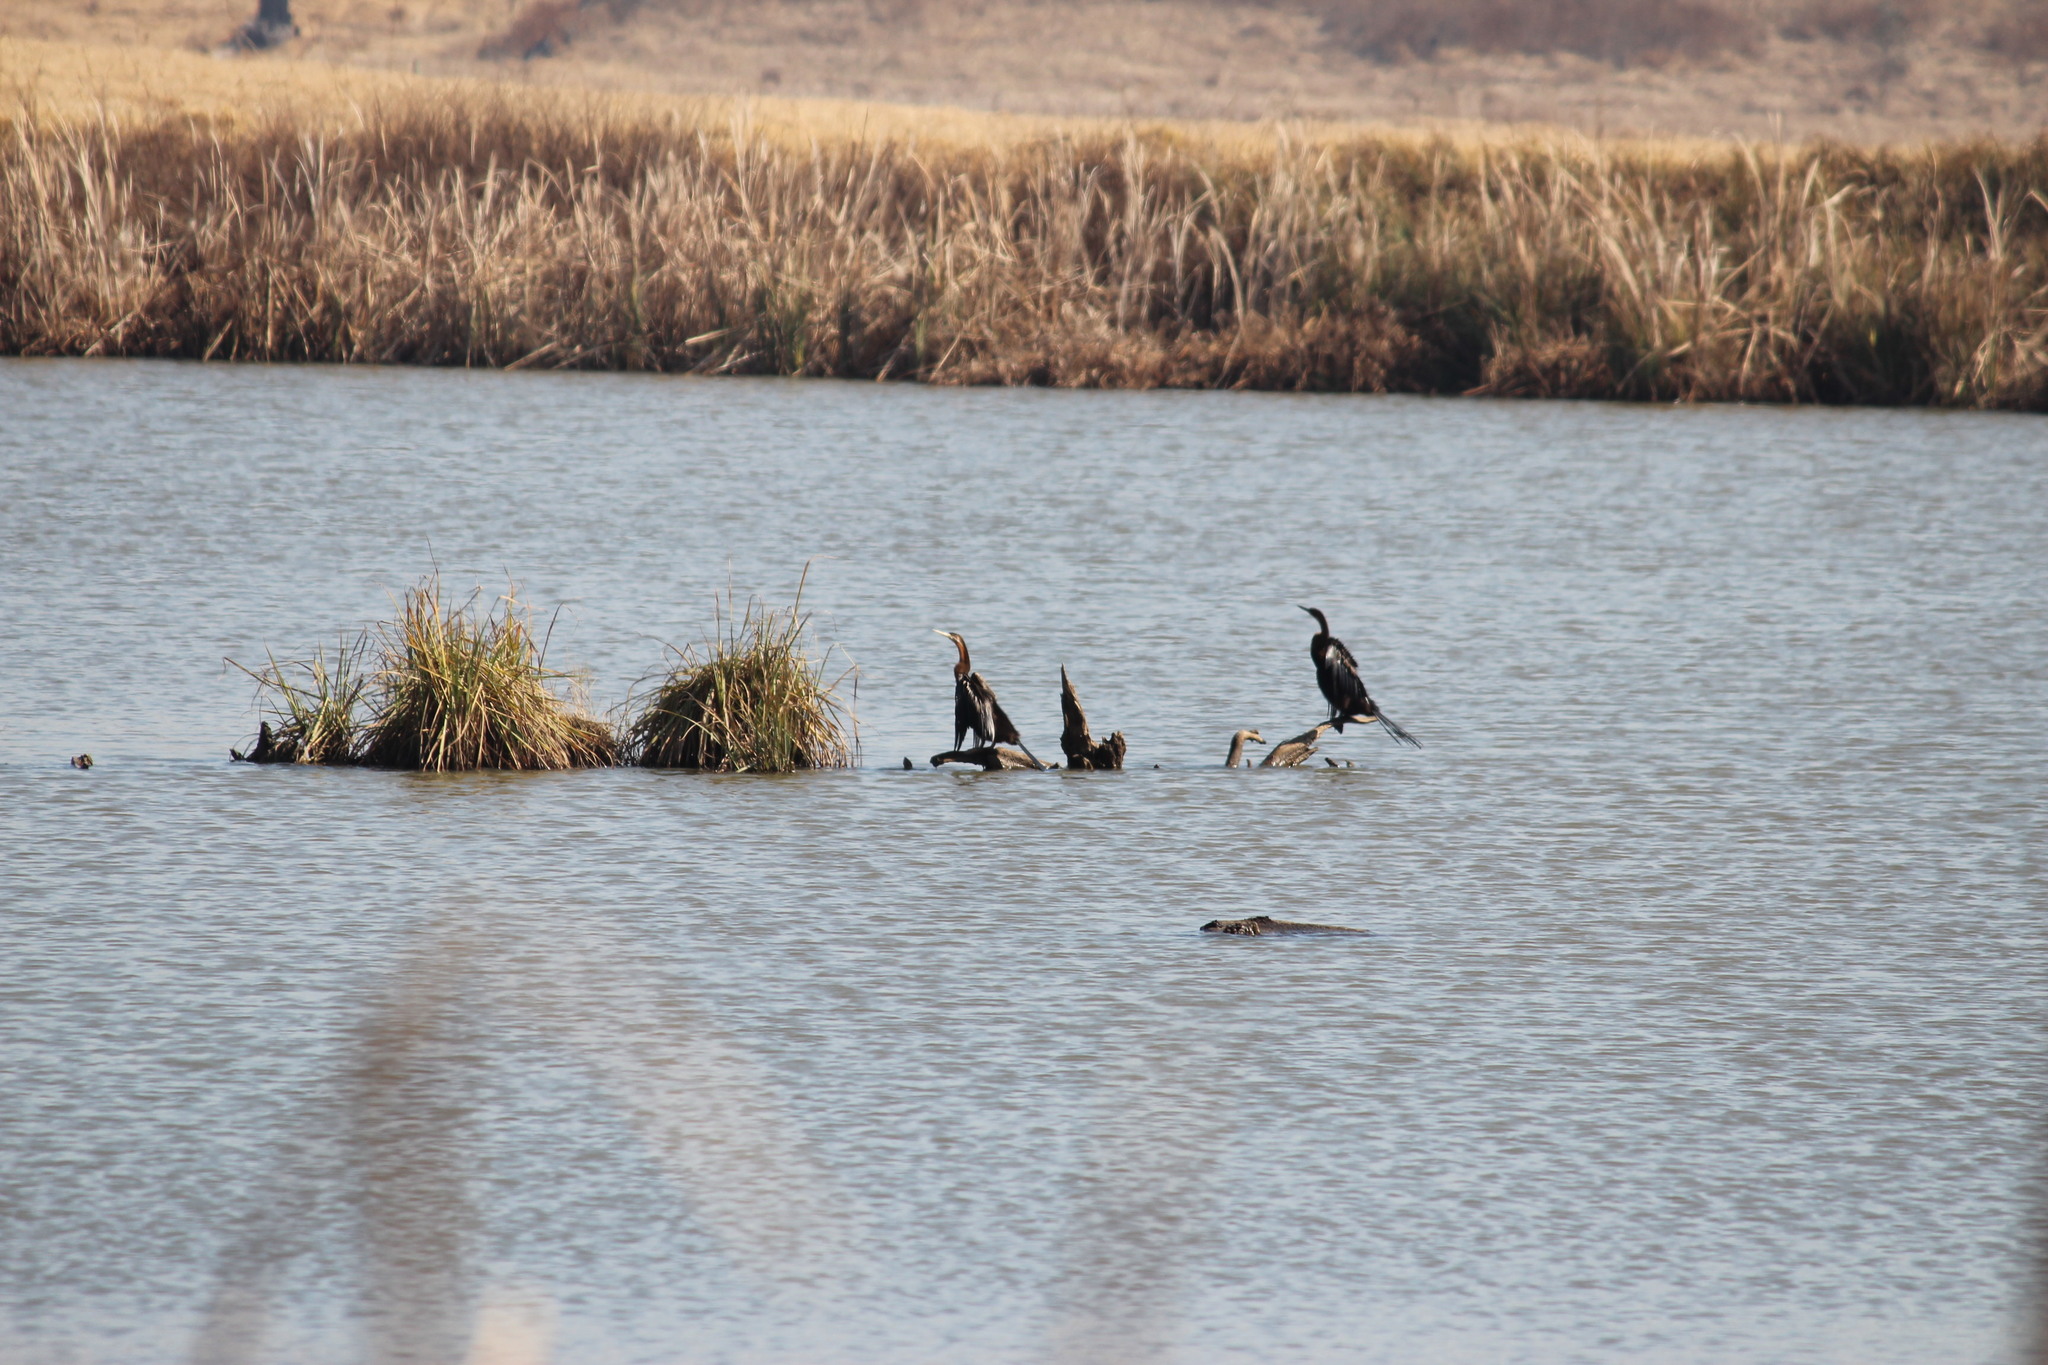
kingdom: Animalia
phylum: Chordata
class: Aves
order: Suliformes
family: Anhingidae
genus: Anhinga
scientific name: Anhinga rufa
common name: African darter
